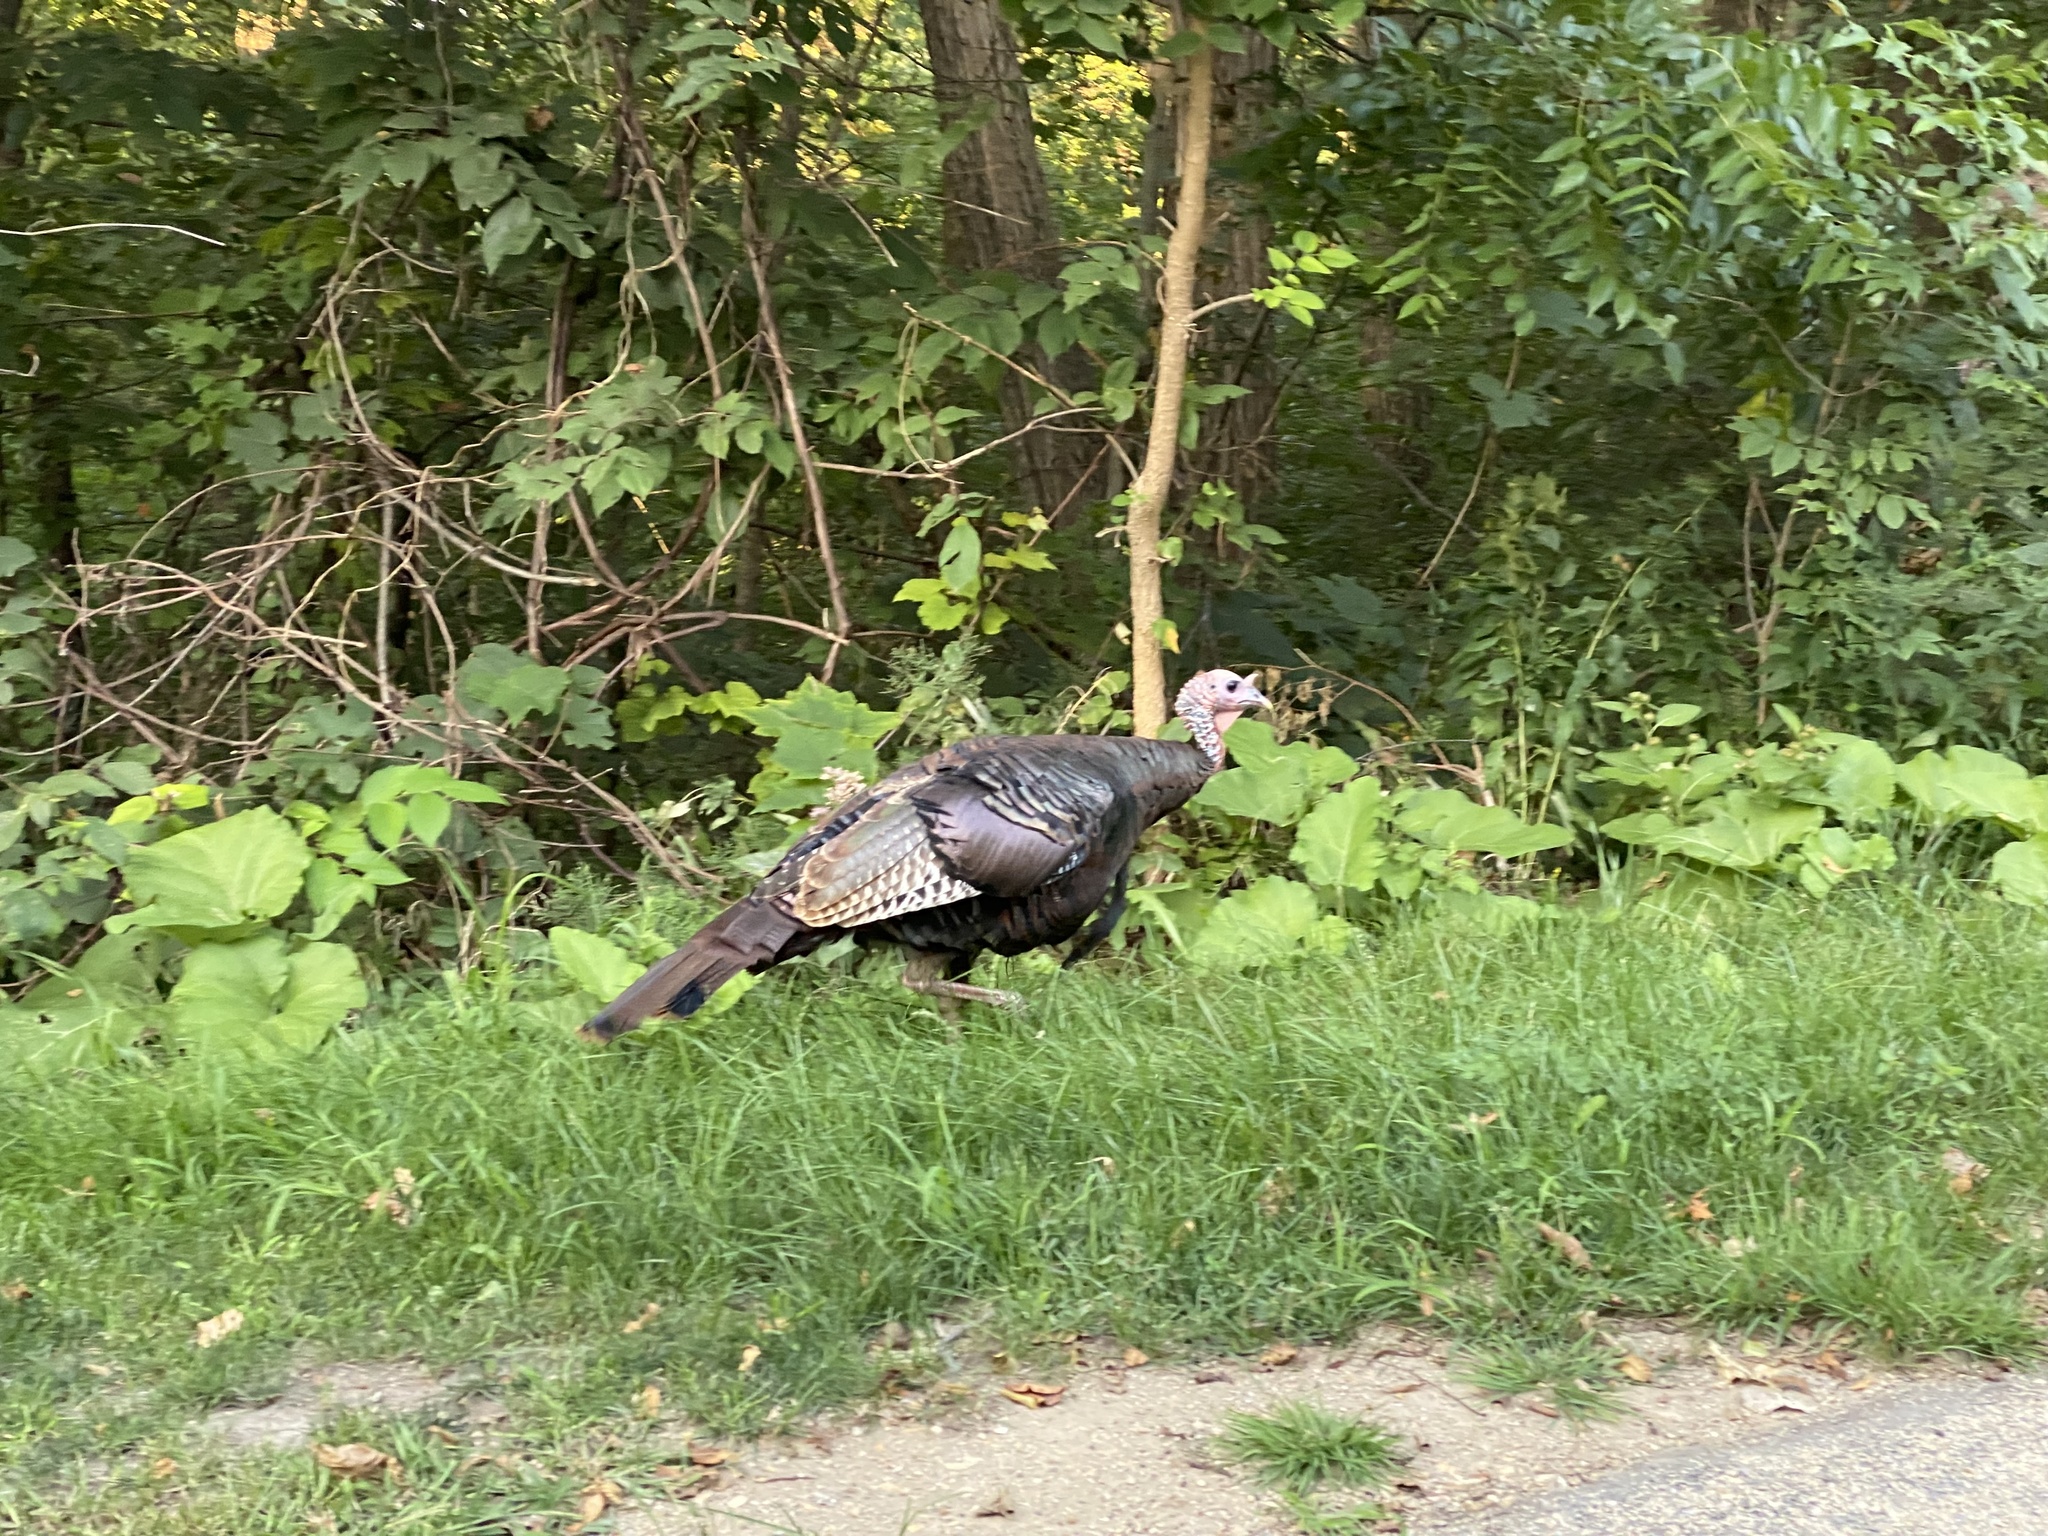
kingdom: Animalia
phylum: Chordata
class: Aves
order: Galliformes
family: Phasianidae
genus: Meleagris
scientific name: Meleagris gallopavo
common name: Wild turkey
